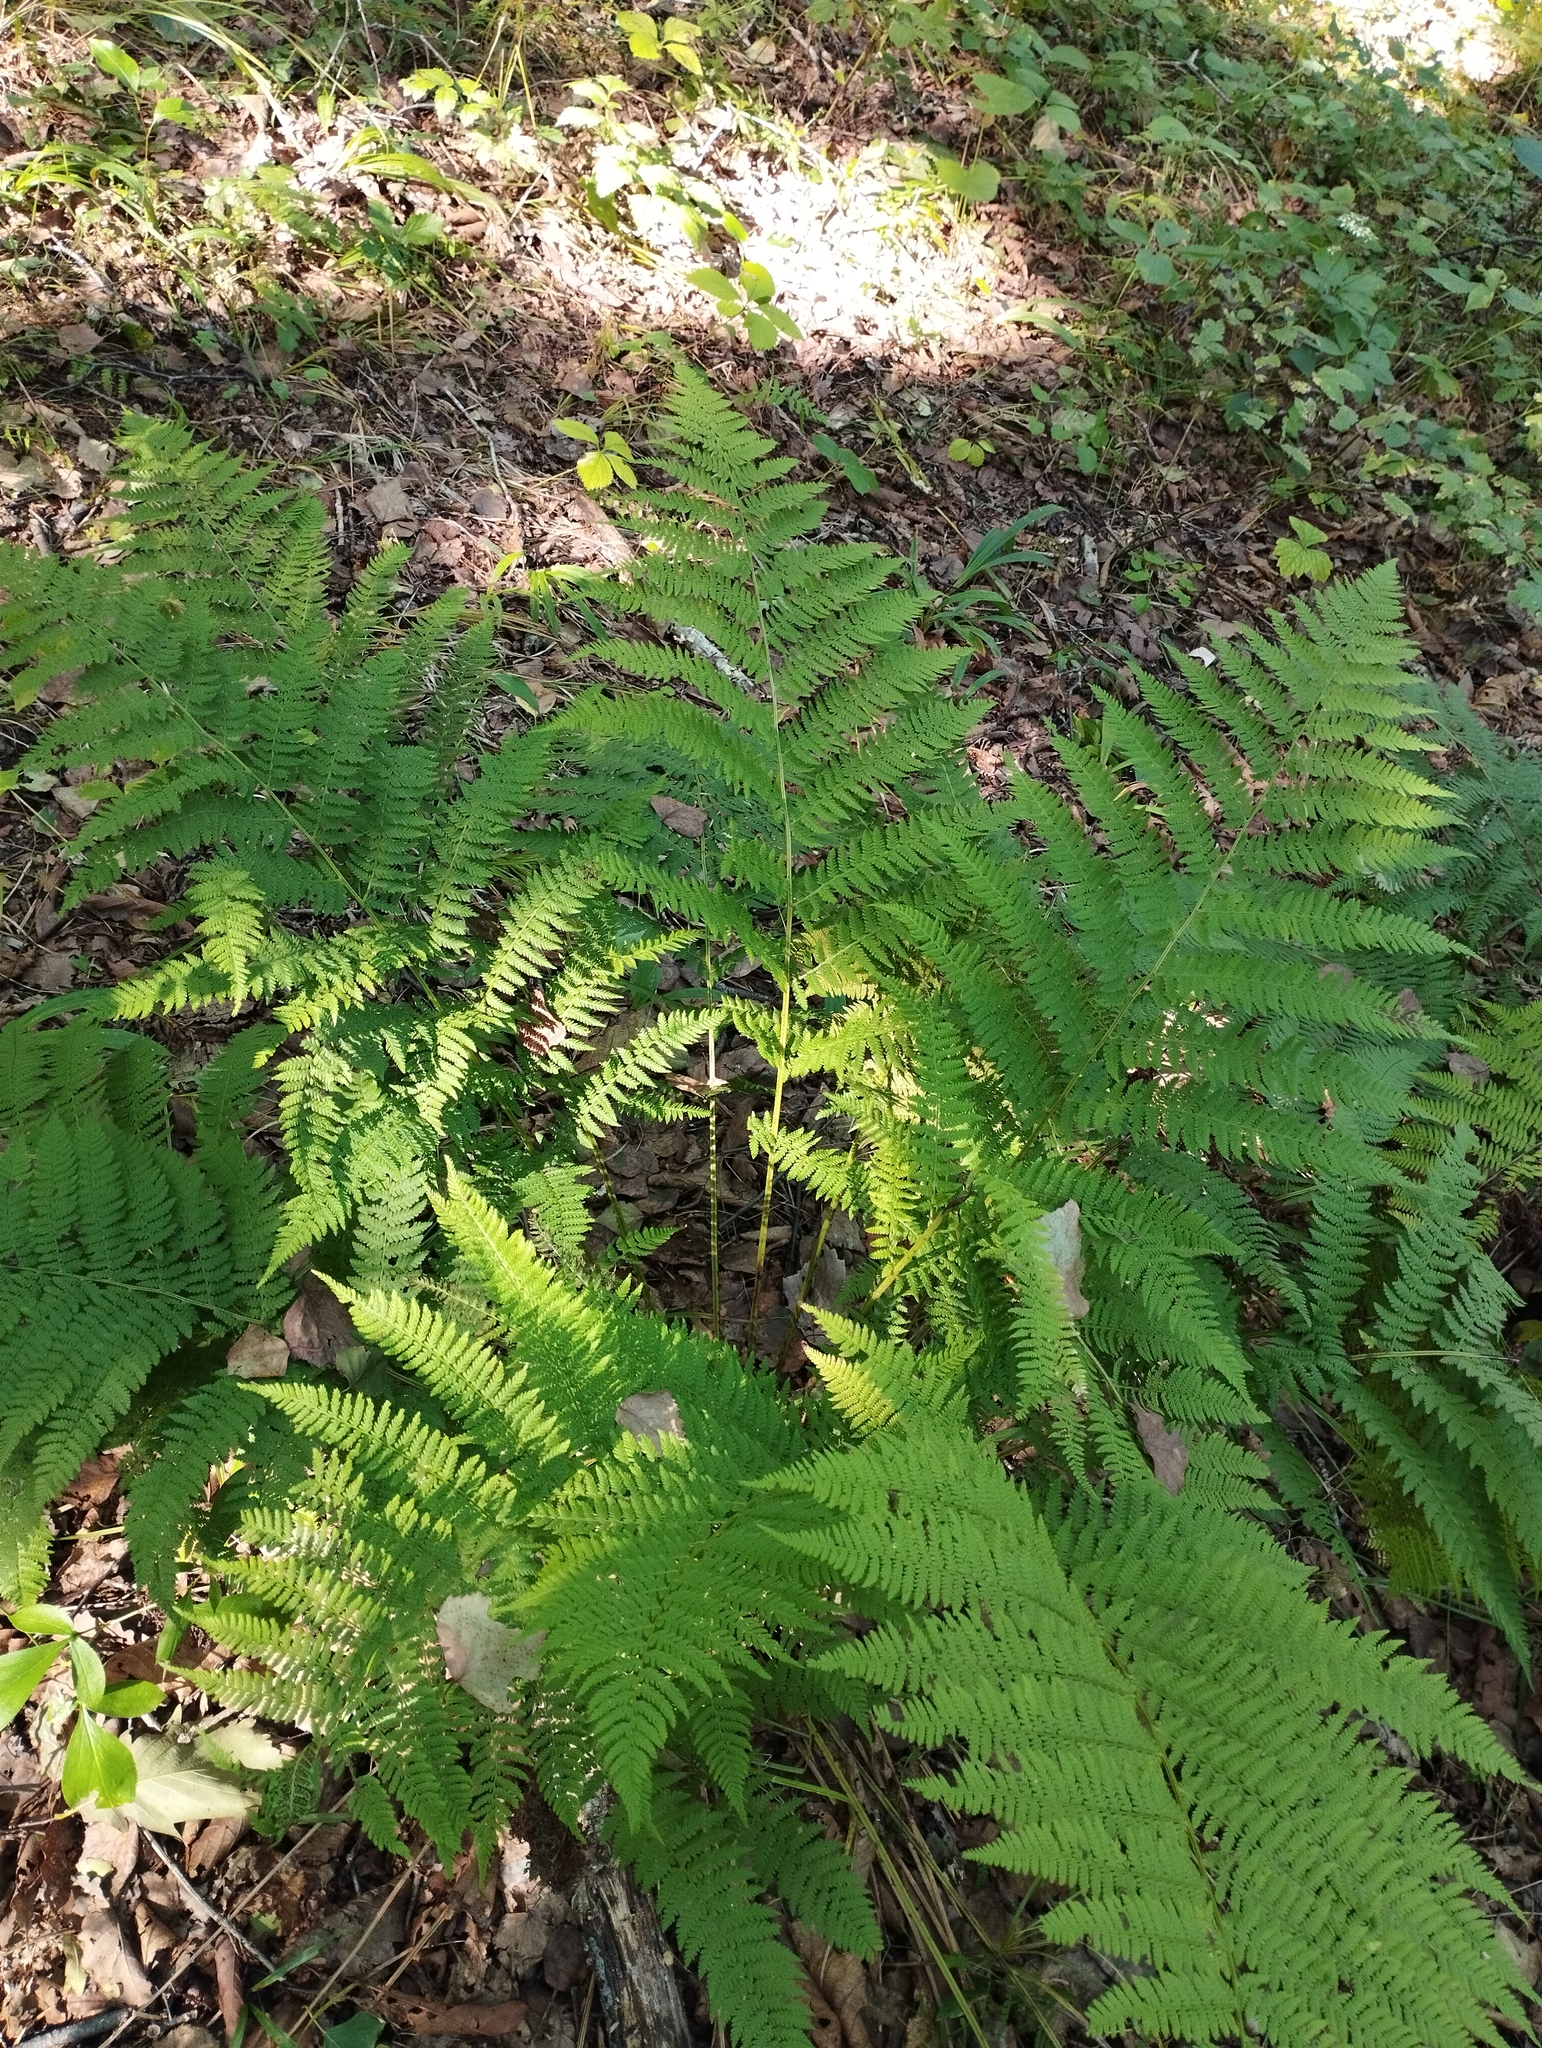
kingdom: Plantae
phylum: Tracheophyta
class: Polypodiopsida
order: Polypodiales
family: Athyriaceae
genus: Athyrium
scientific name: Athyrium filix-femina
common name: Lady fern
